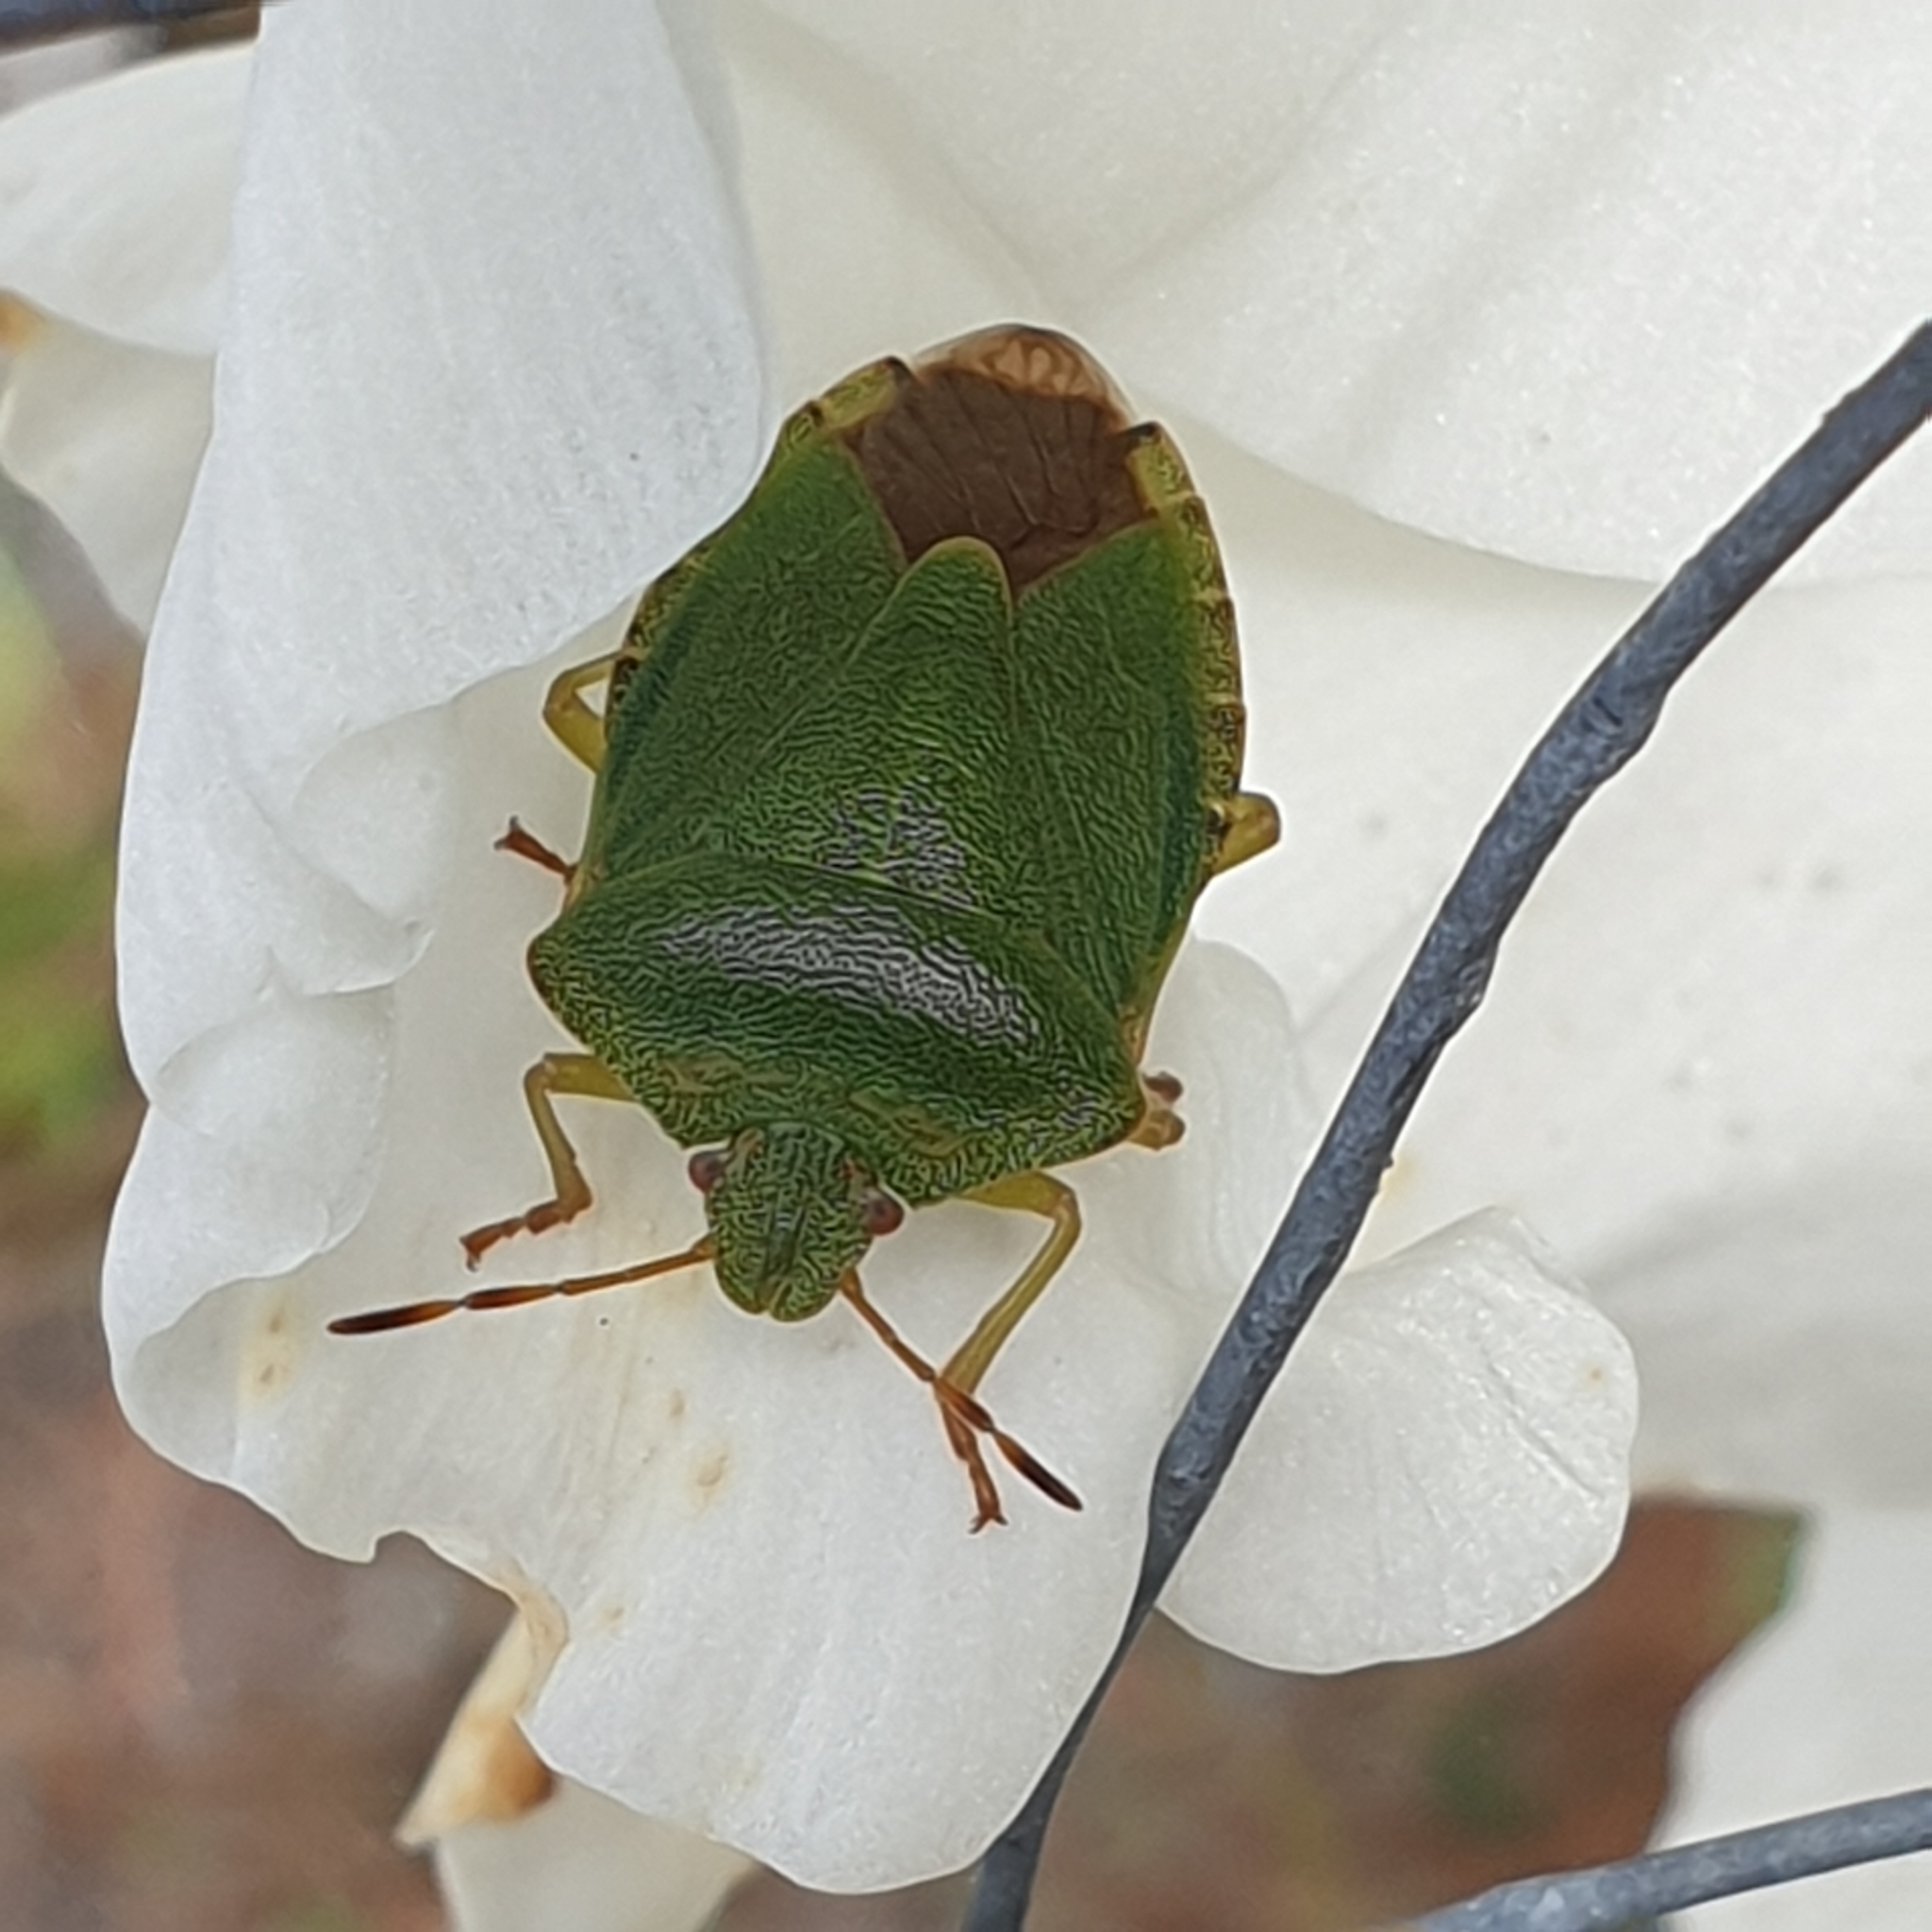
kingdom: Animalia
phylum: Arthropoda
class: Insecta
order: Hemiptera
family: Pentatomidae
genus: Palomena
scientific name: Palomena prasina
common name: Green shieldbug
